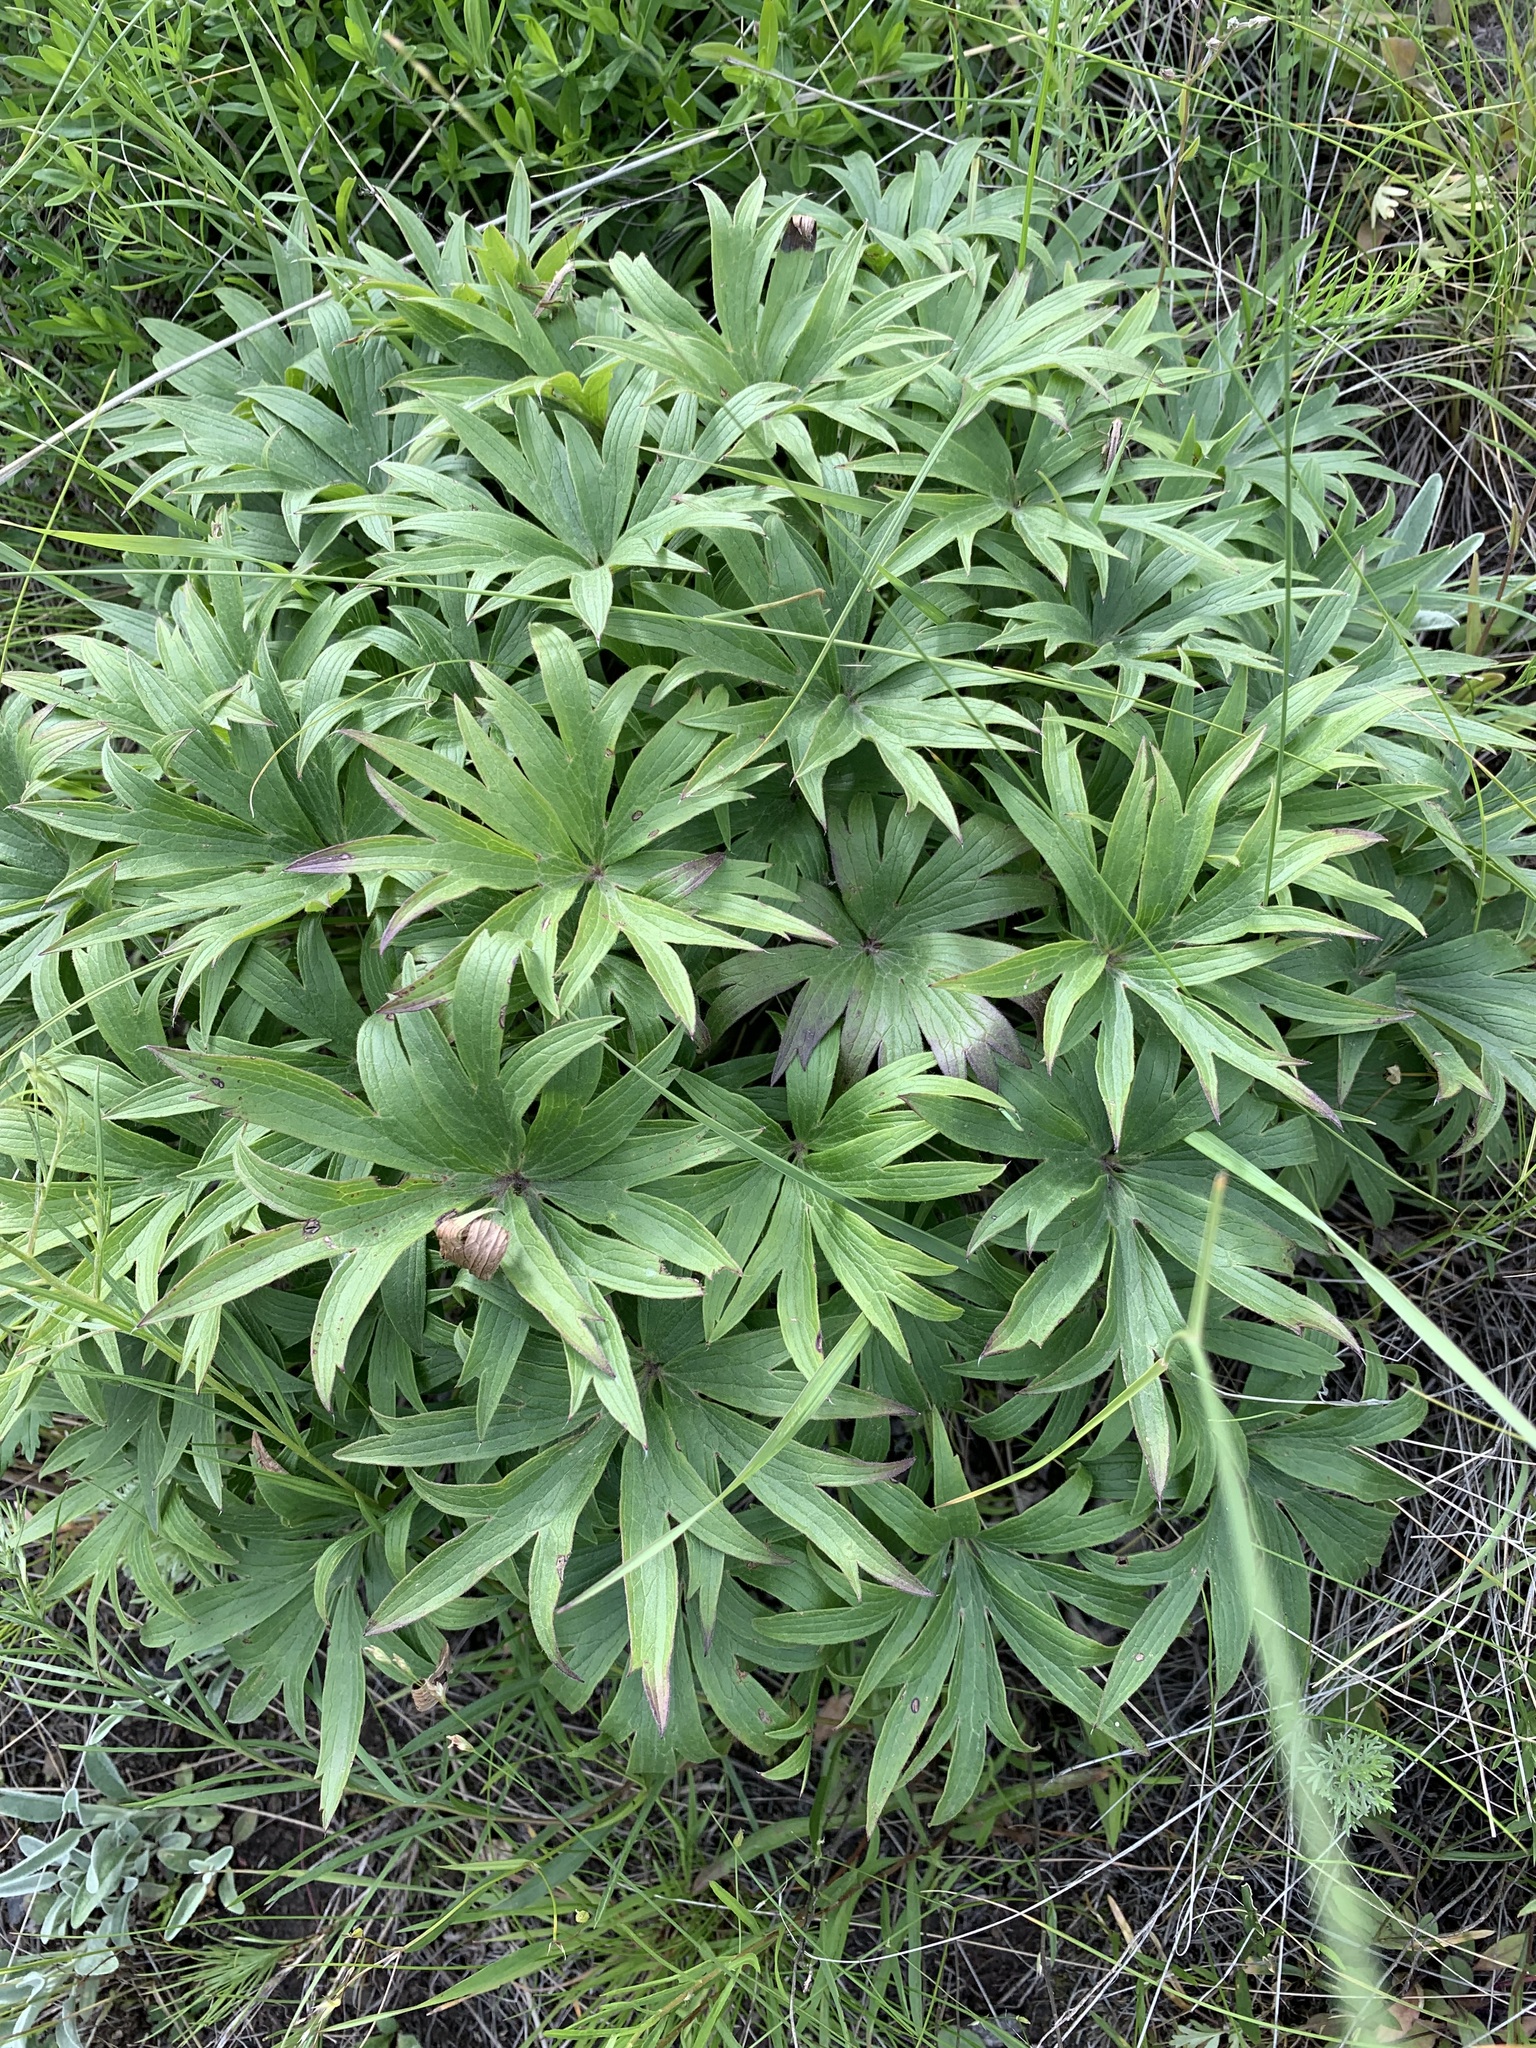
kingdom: Plantae
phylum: Tracheophyta
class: Magnoliopsida
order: Ranunculales
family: Ranunculaceae
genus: Pulsatilla
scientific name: Pulsatilla patens
